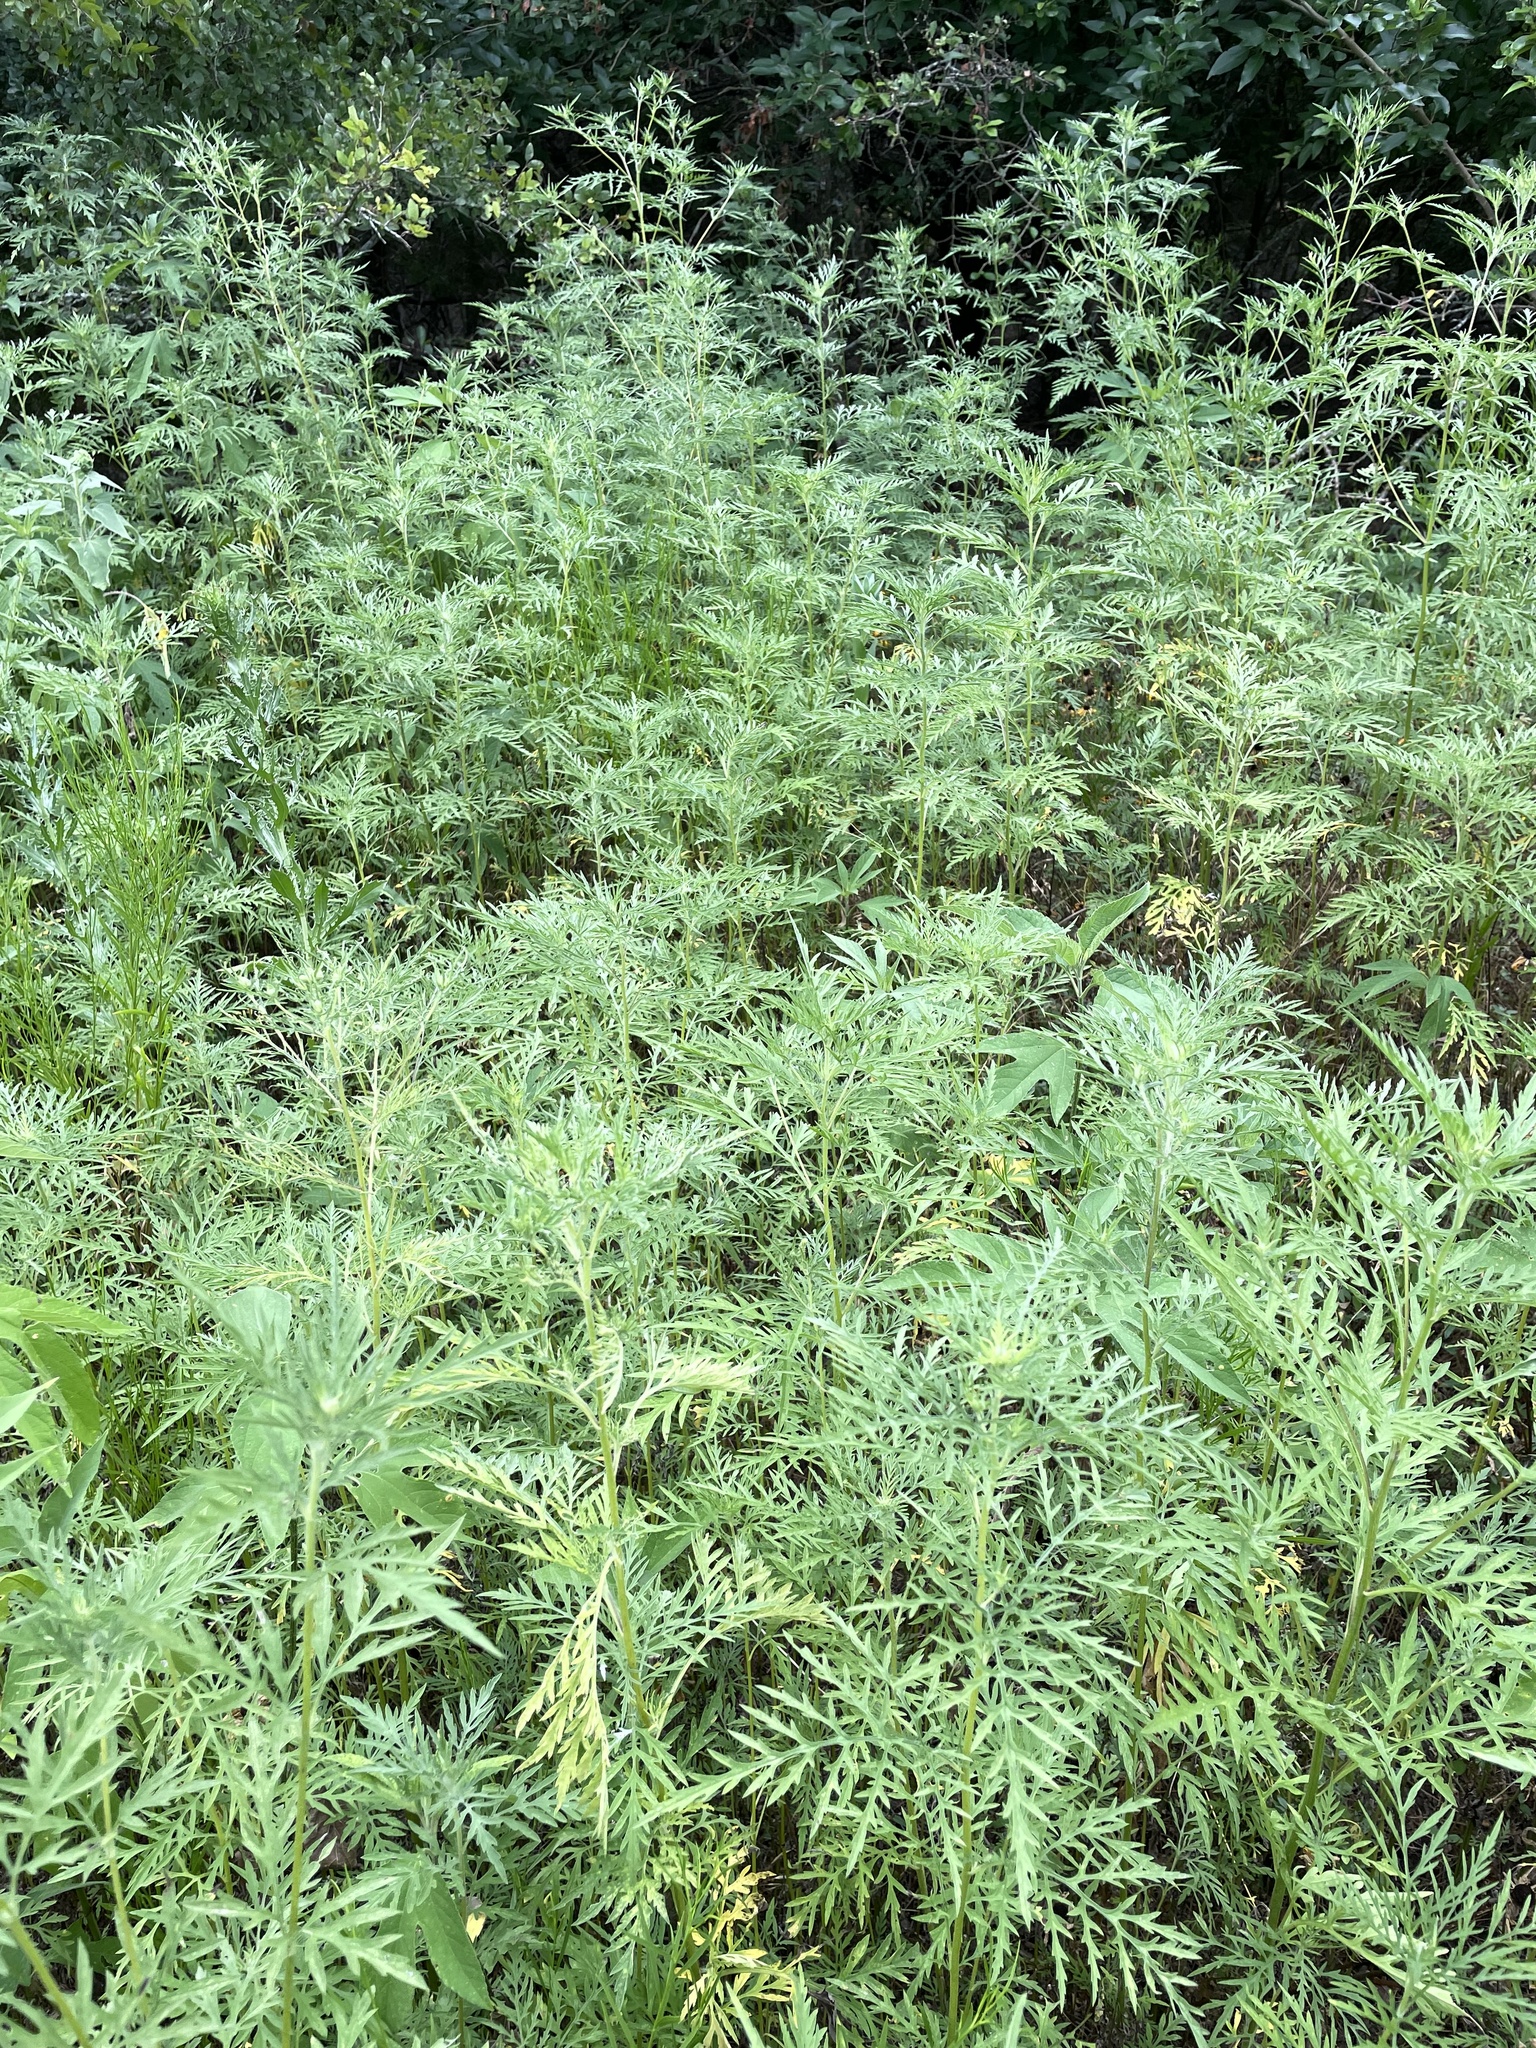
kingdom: Plantae
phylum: Tracheophyta
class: Magnoliopsida
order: Asterales
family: Asteraceae
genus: Ambrosia
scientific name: Ambrosia artemisiifolia
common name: Annual ragweed
